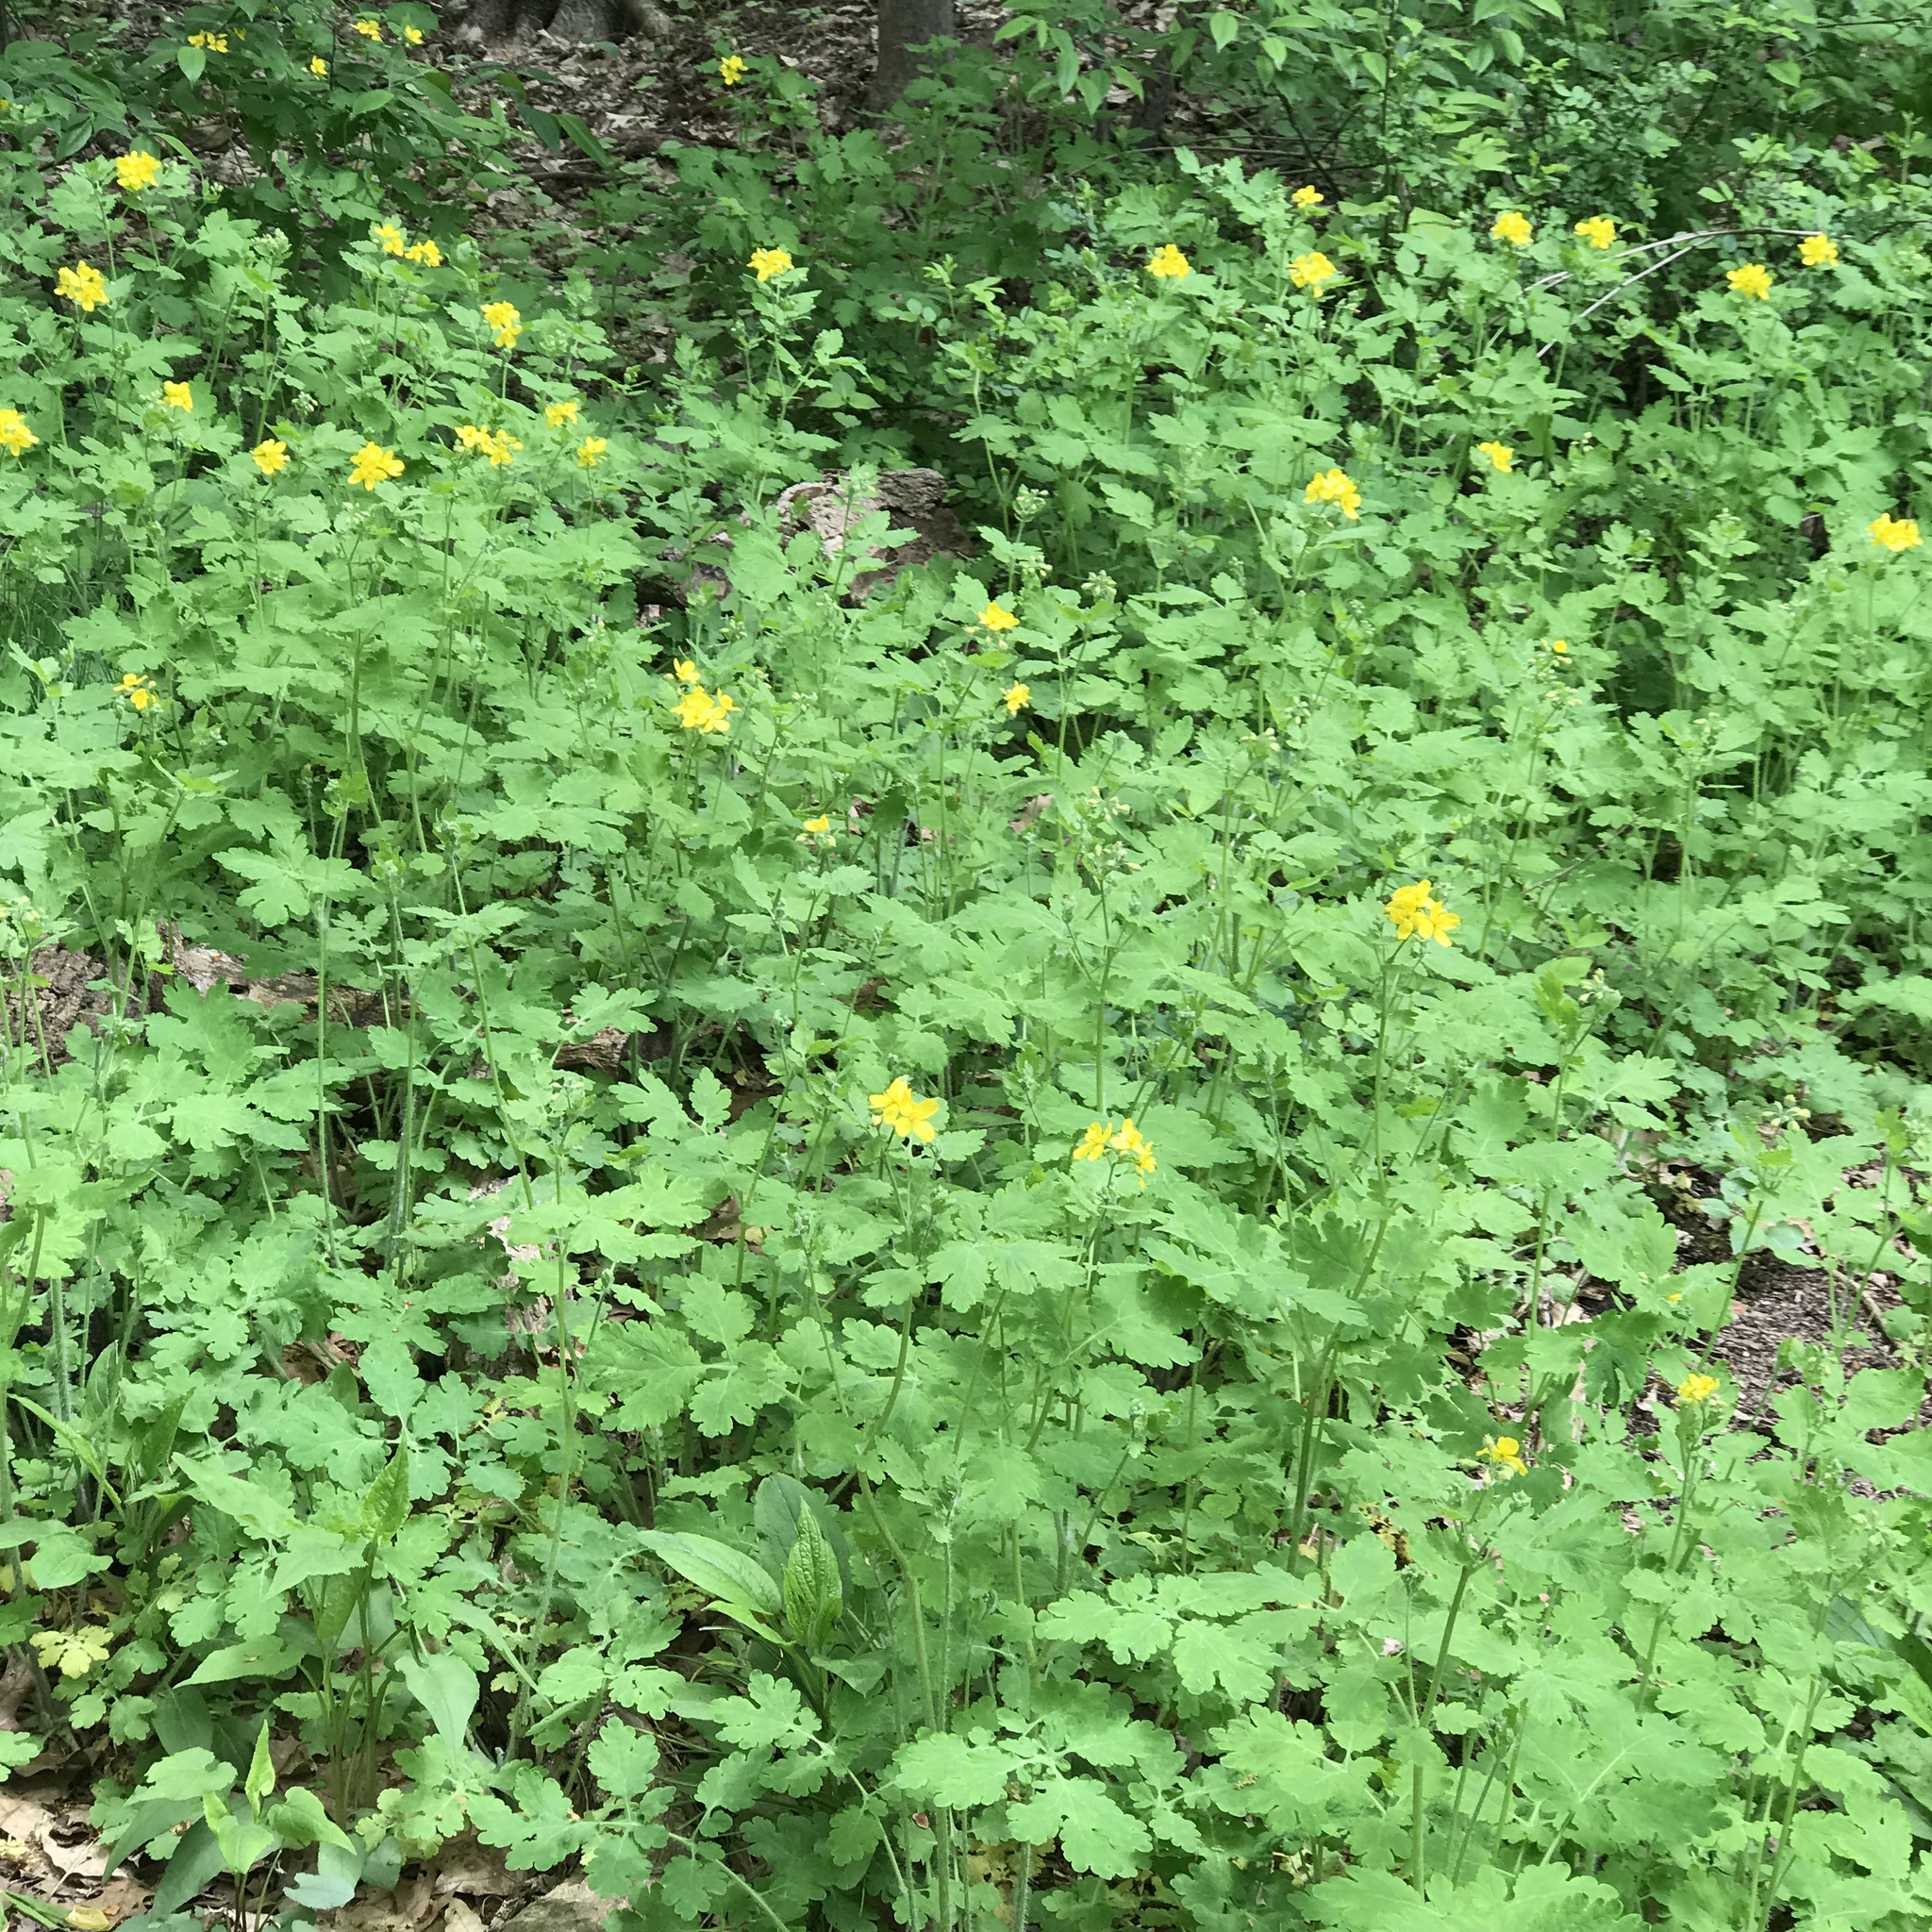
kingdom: Plantae
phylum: Tracheophyta
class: Magnoliopsida
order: Ranunculales
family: Papaveraceae
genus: Chelidonium
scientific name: Chelidonium majus
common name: Greater celandine
